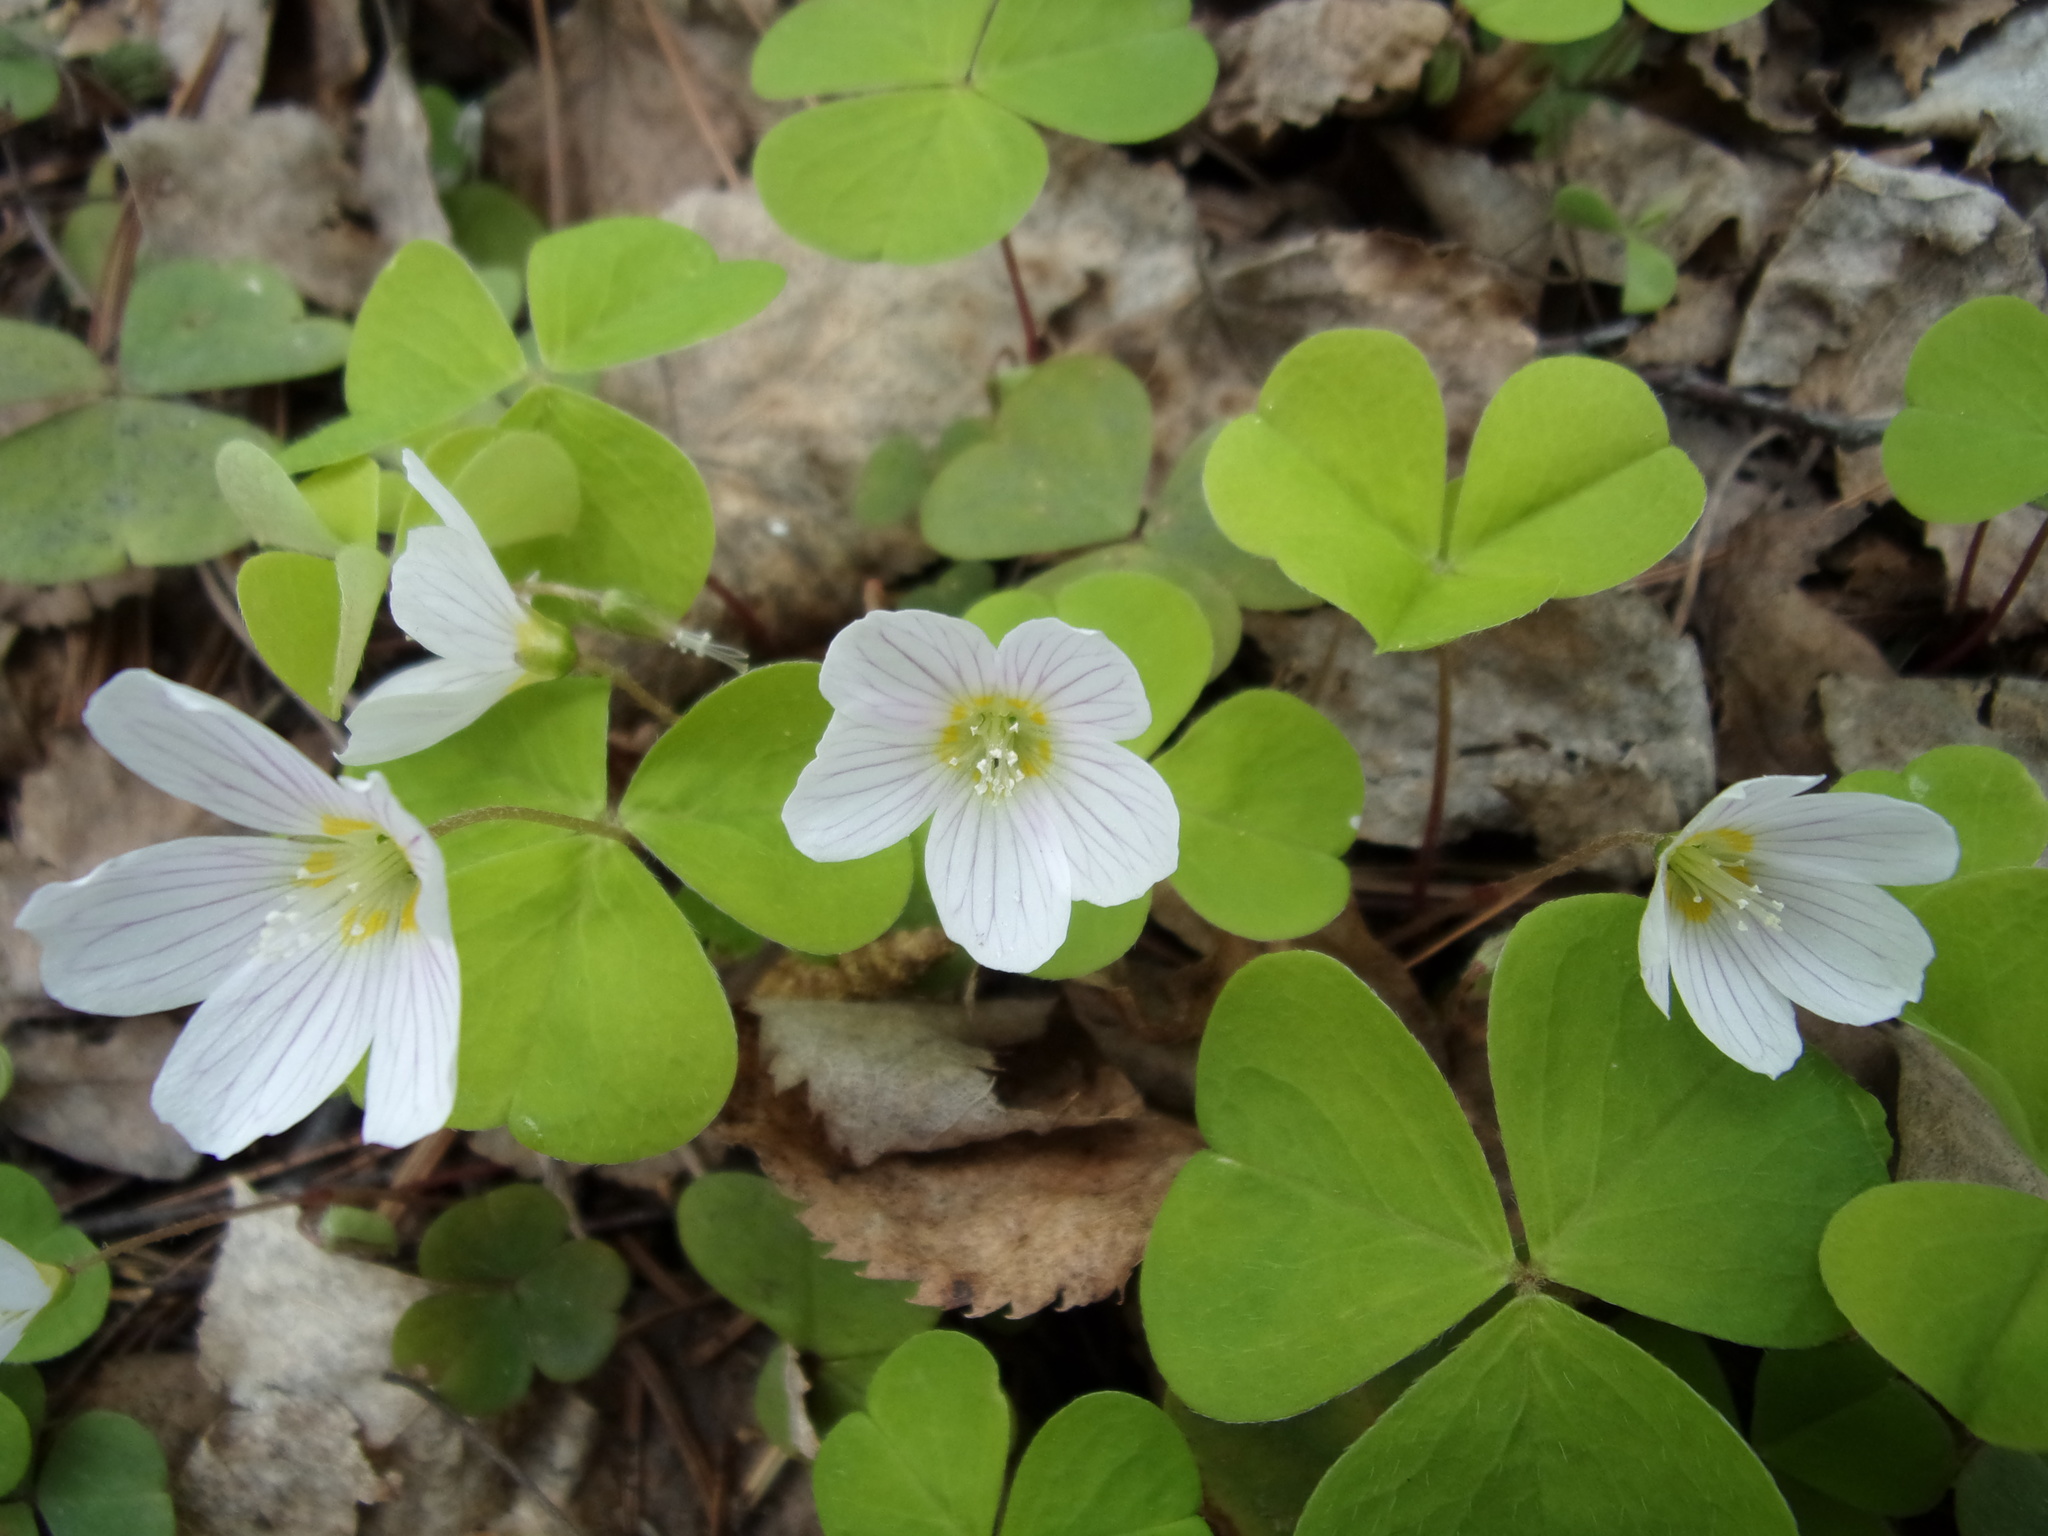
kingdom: Plantae
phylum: Tracheophyta
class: Magnoliopsida
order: Oxalidales
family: Oxalidaceae
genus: Oxalis
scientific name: Oxalis acetosella
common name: Wood-sorrel
